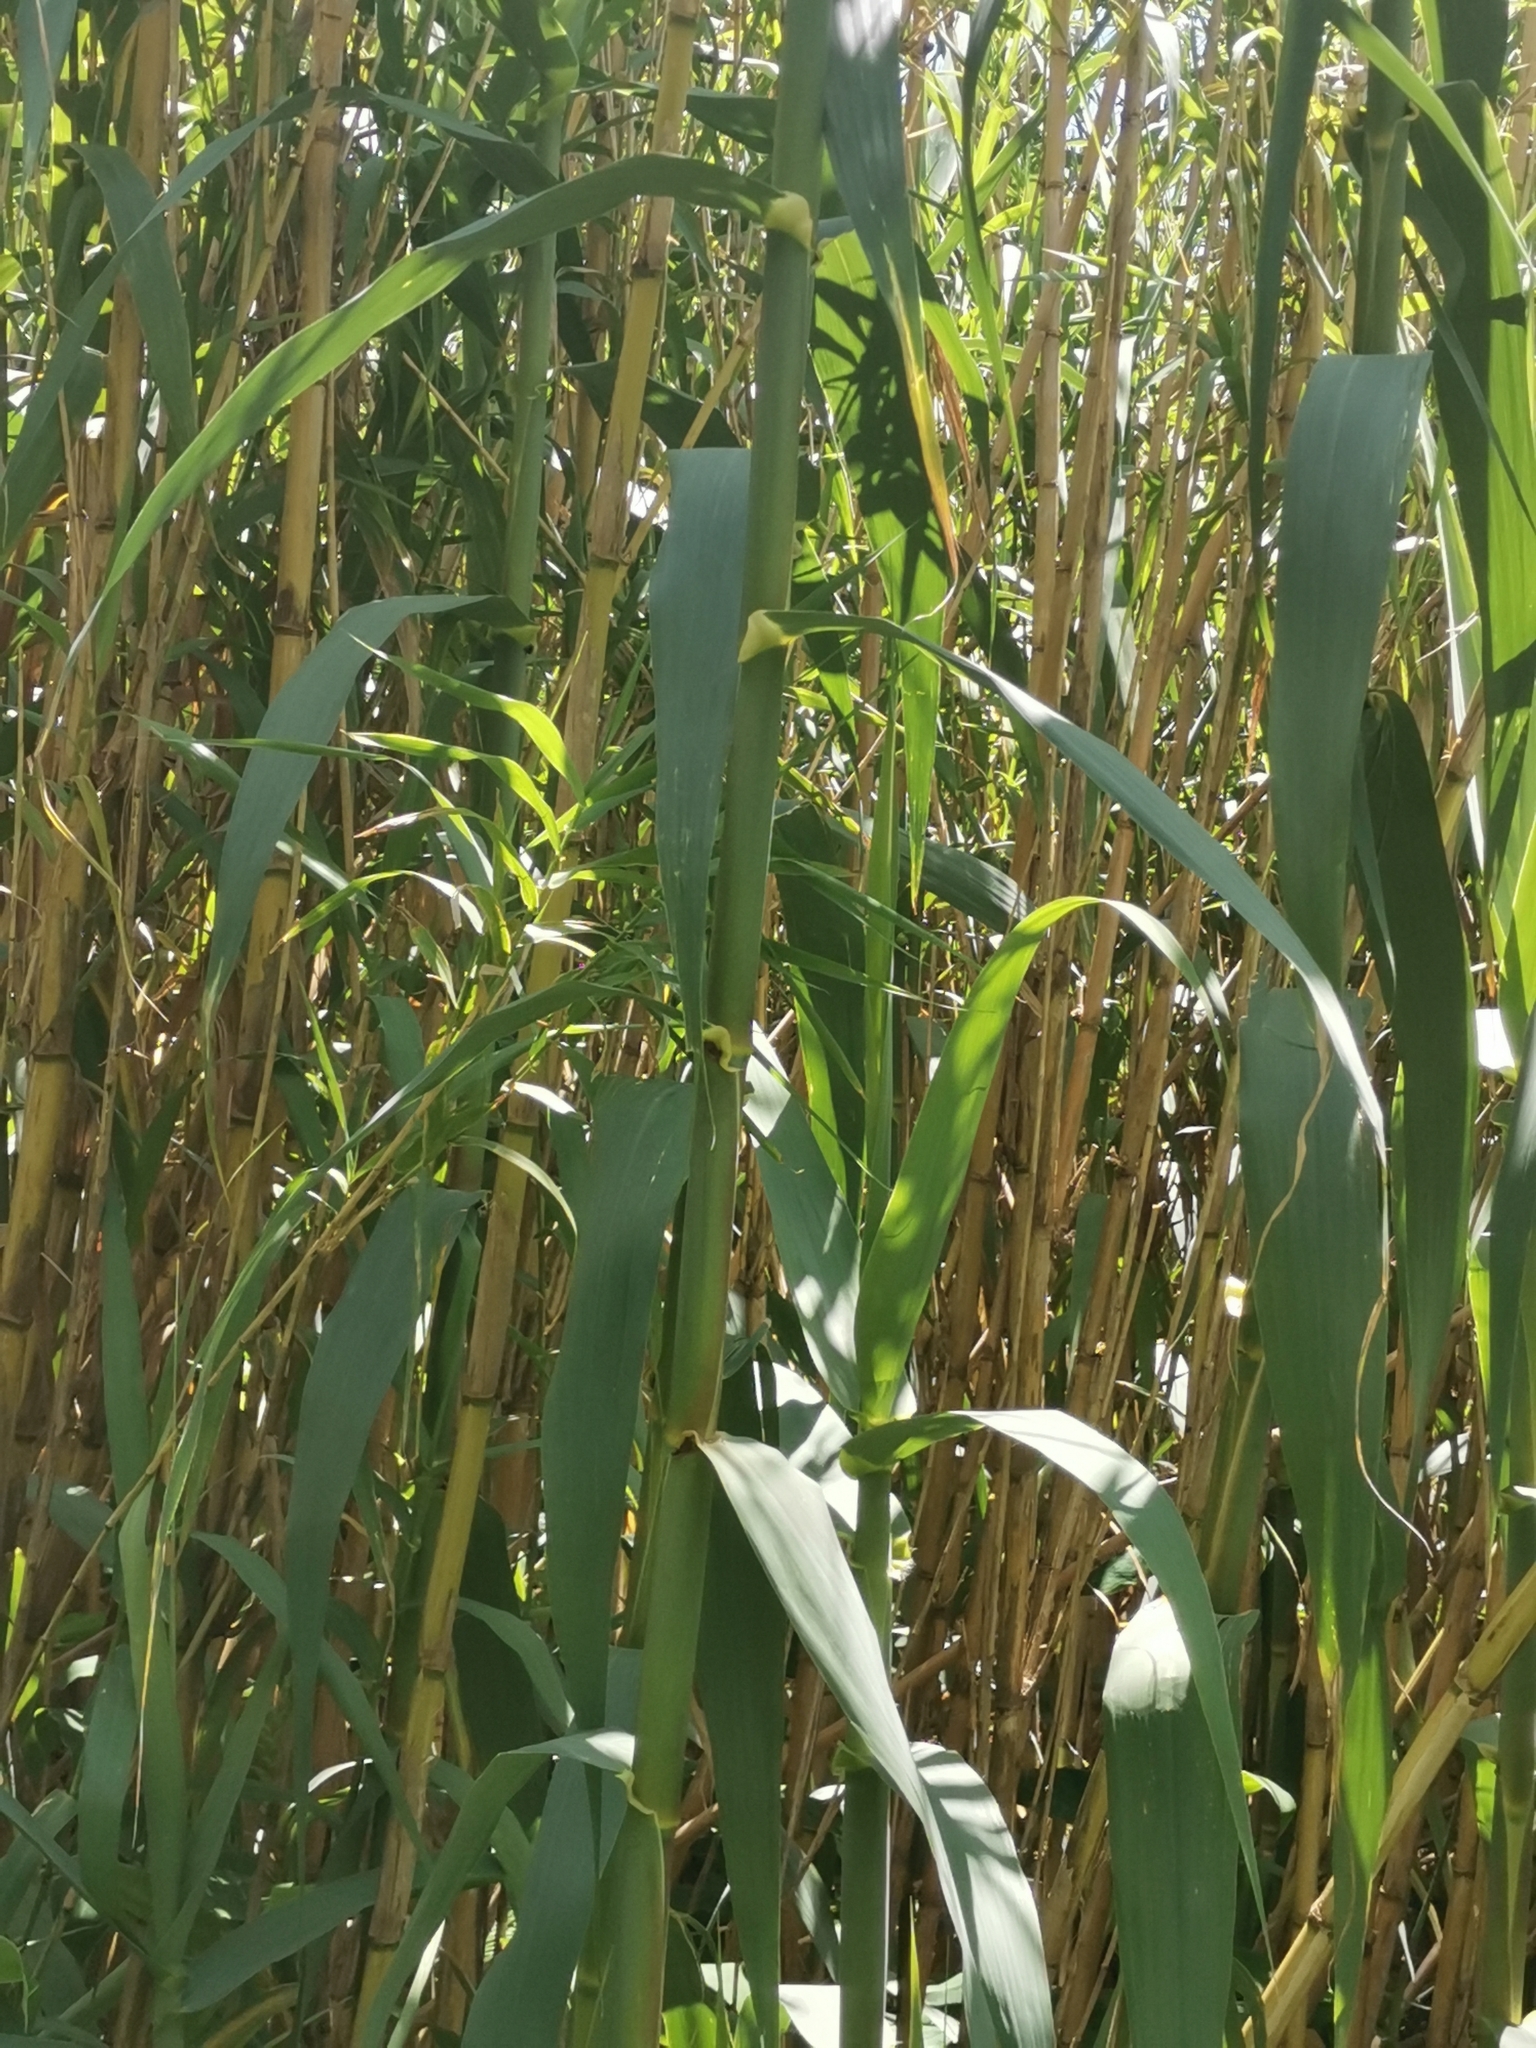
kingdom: Plantae
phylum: Tracheophyta
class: Liliopsida
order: Poales
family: Poaceae
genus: Arundo
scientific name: Arundo donax
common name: Giant reed
